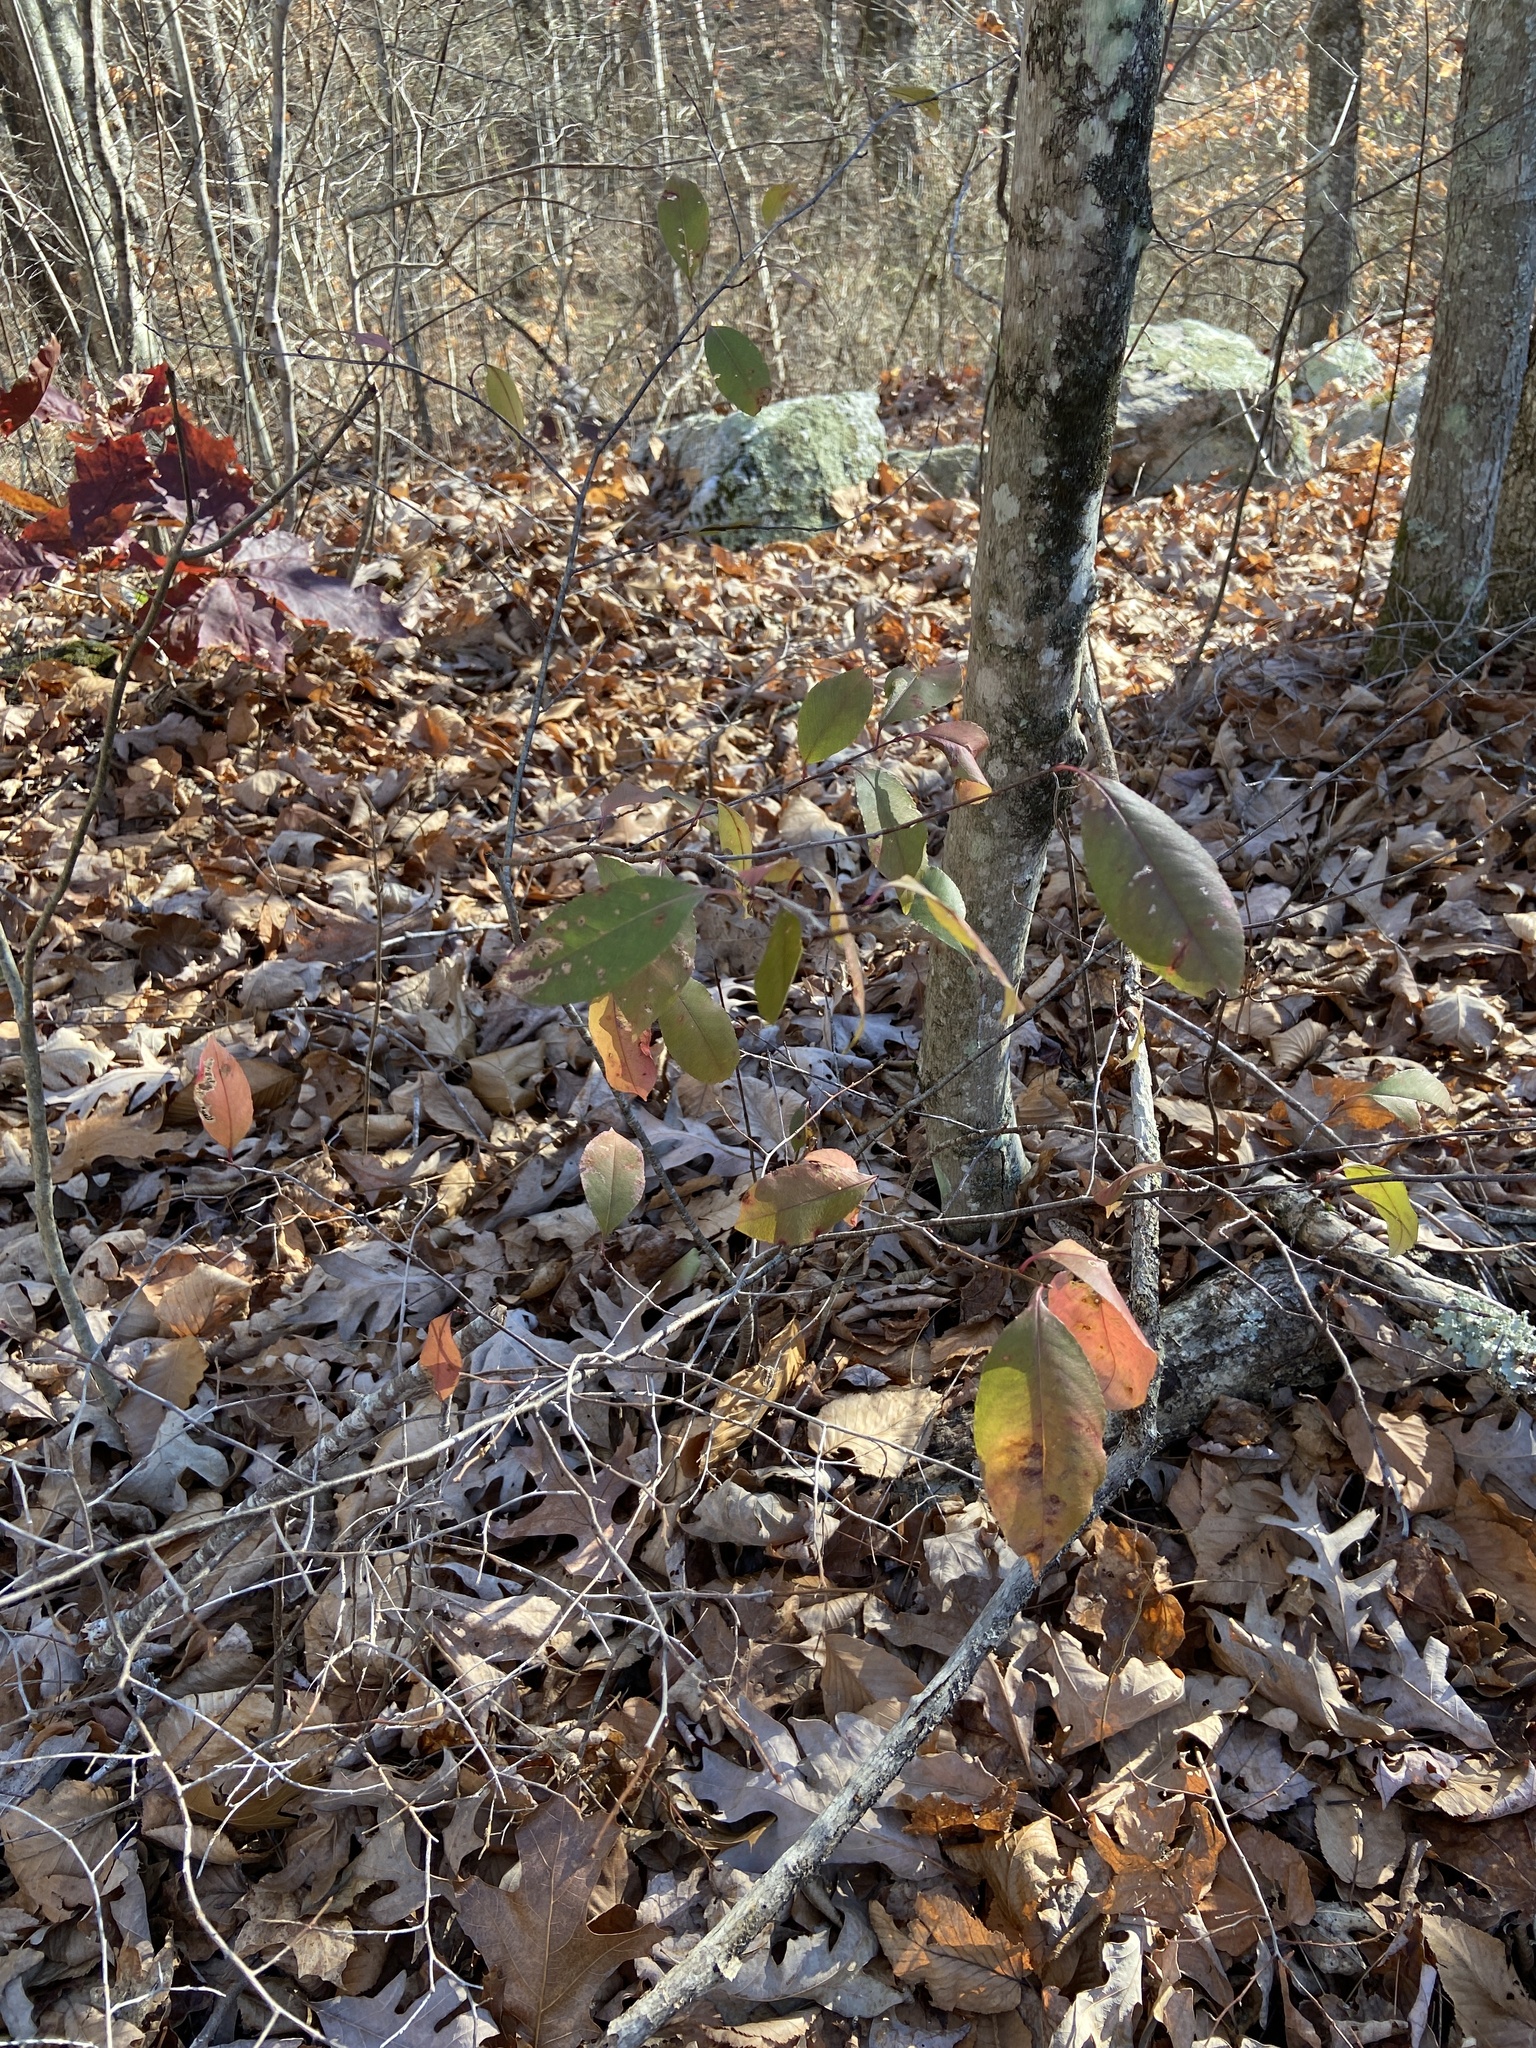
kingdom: Plantae
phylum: Tracheophyta
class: Magnoliopsida
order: Rosales
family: Rosaceae
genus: Prunus
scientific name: Prunus serotina
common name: Black cherry
